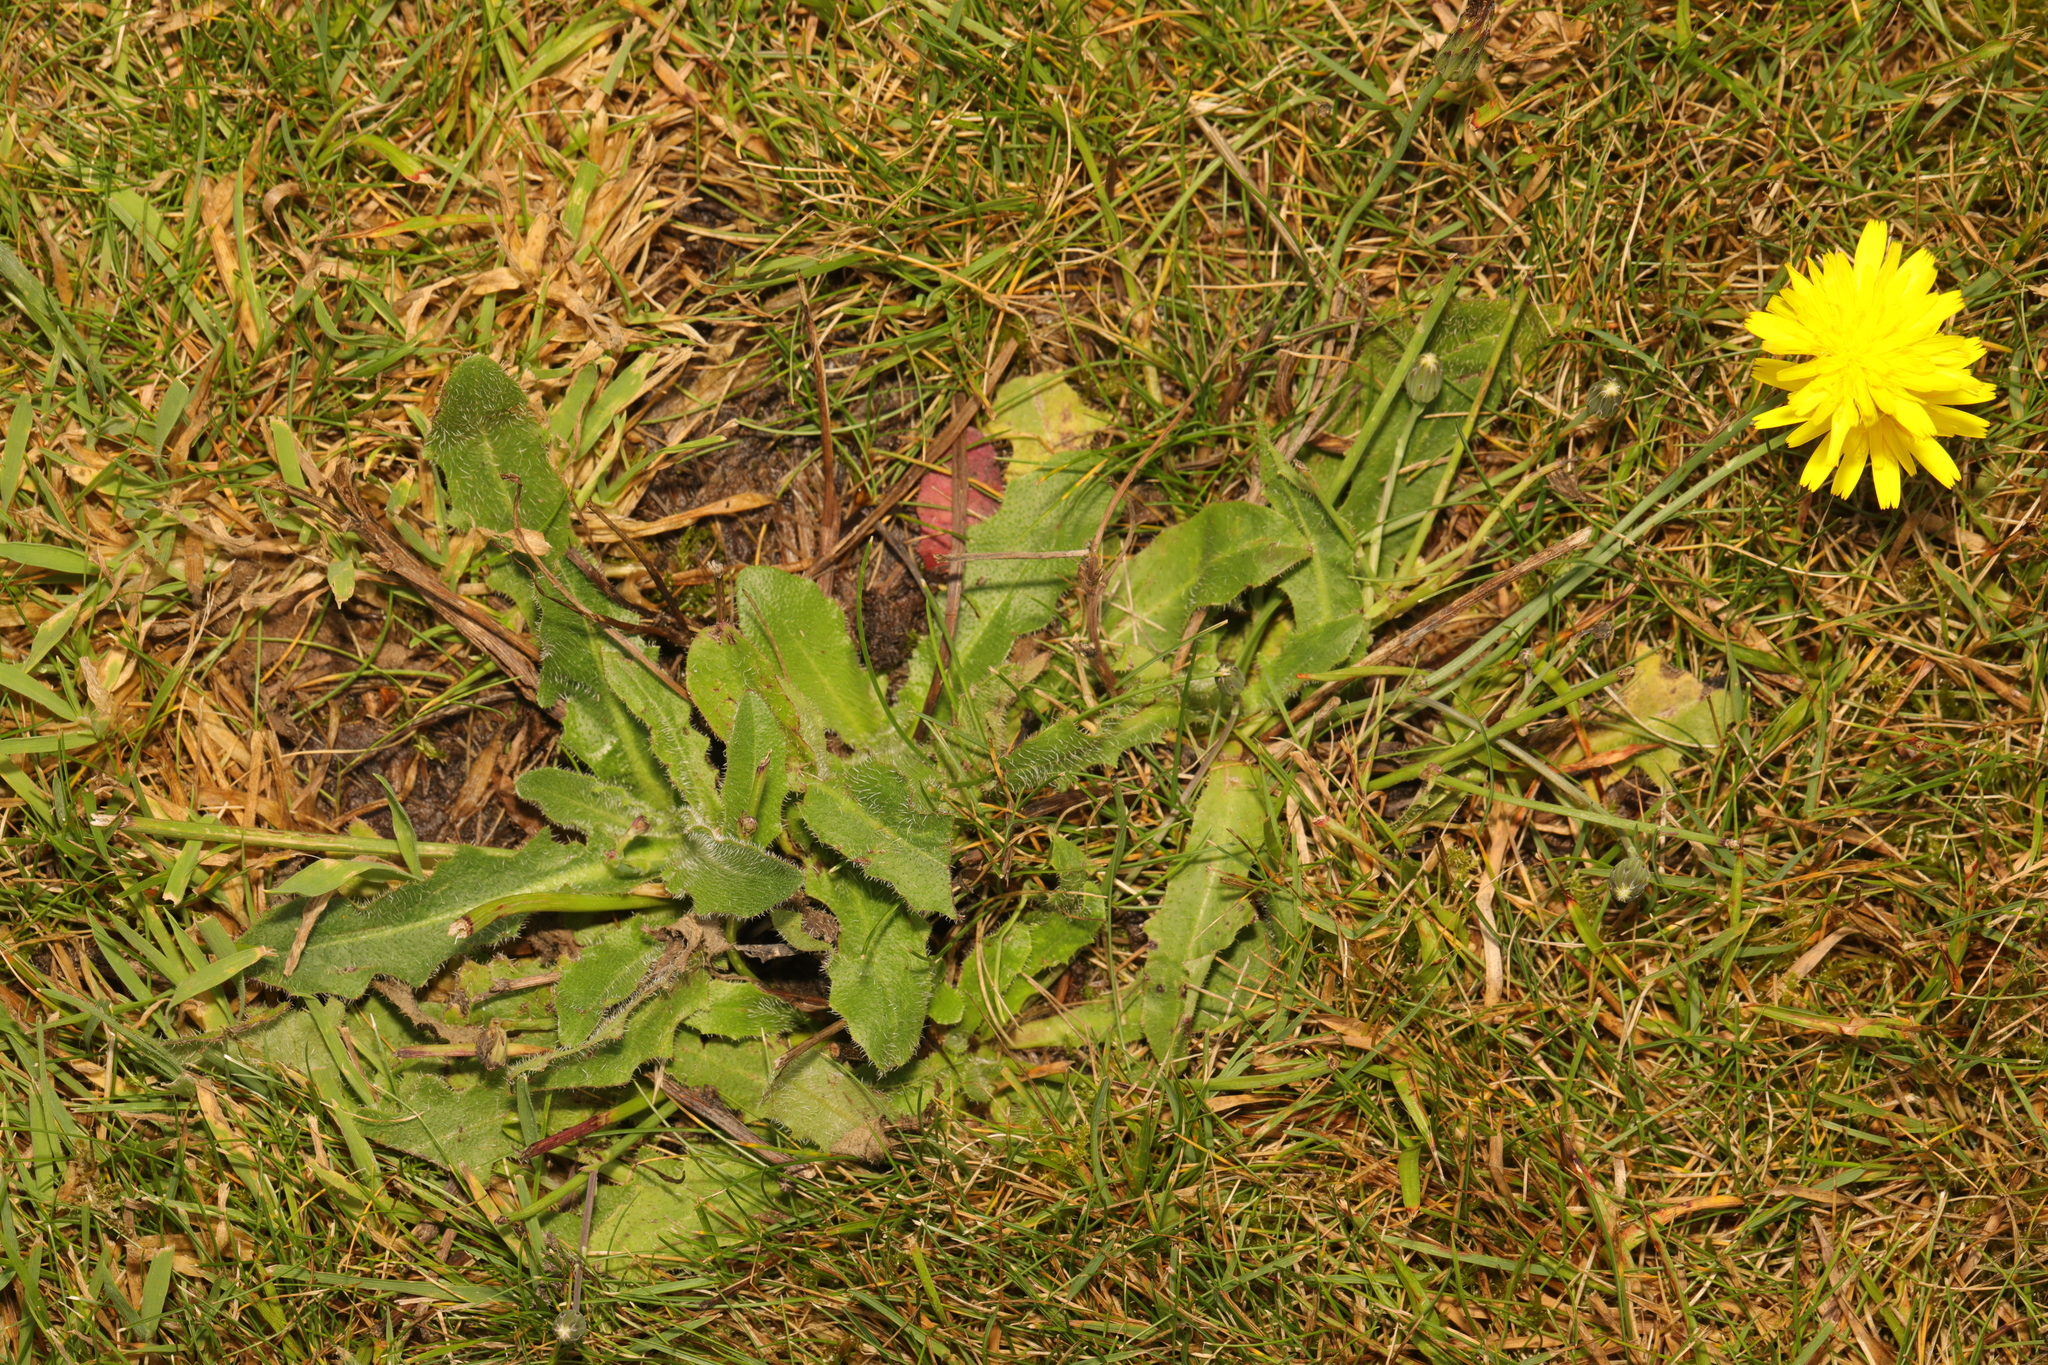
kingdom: Plantae
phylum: Tracheophyta
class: Magnoliopsida
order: Asterales
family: Asteraceae
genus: Hypochaeris
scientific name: Hypochaeris radicata
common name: Flatweed
